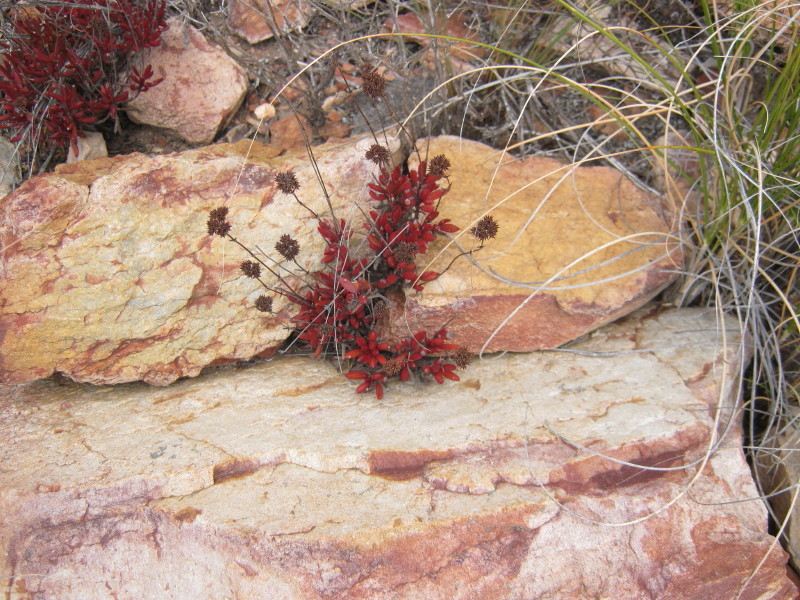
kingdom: Plantae
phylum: Tracheophyta
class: Magnoliopsida
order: Saxifragales
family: Crassulaceae
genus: Crassula
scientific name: Crassula atropurpurea
